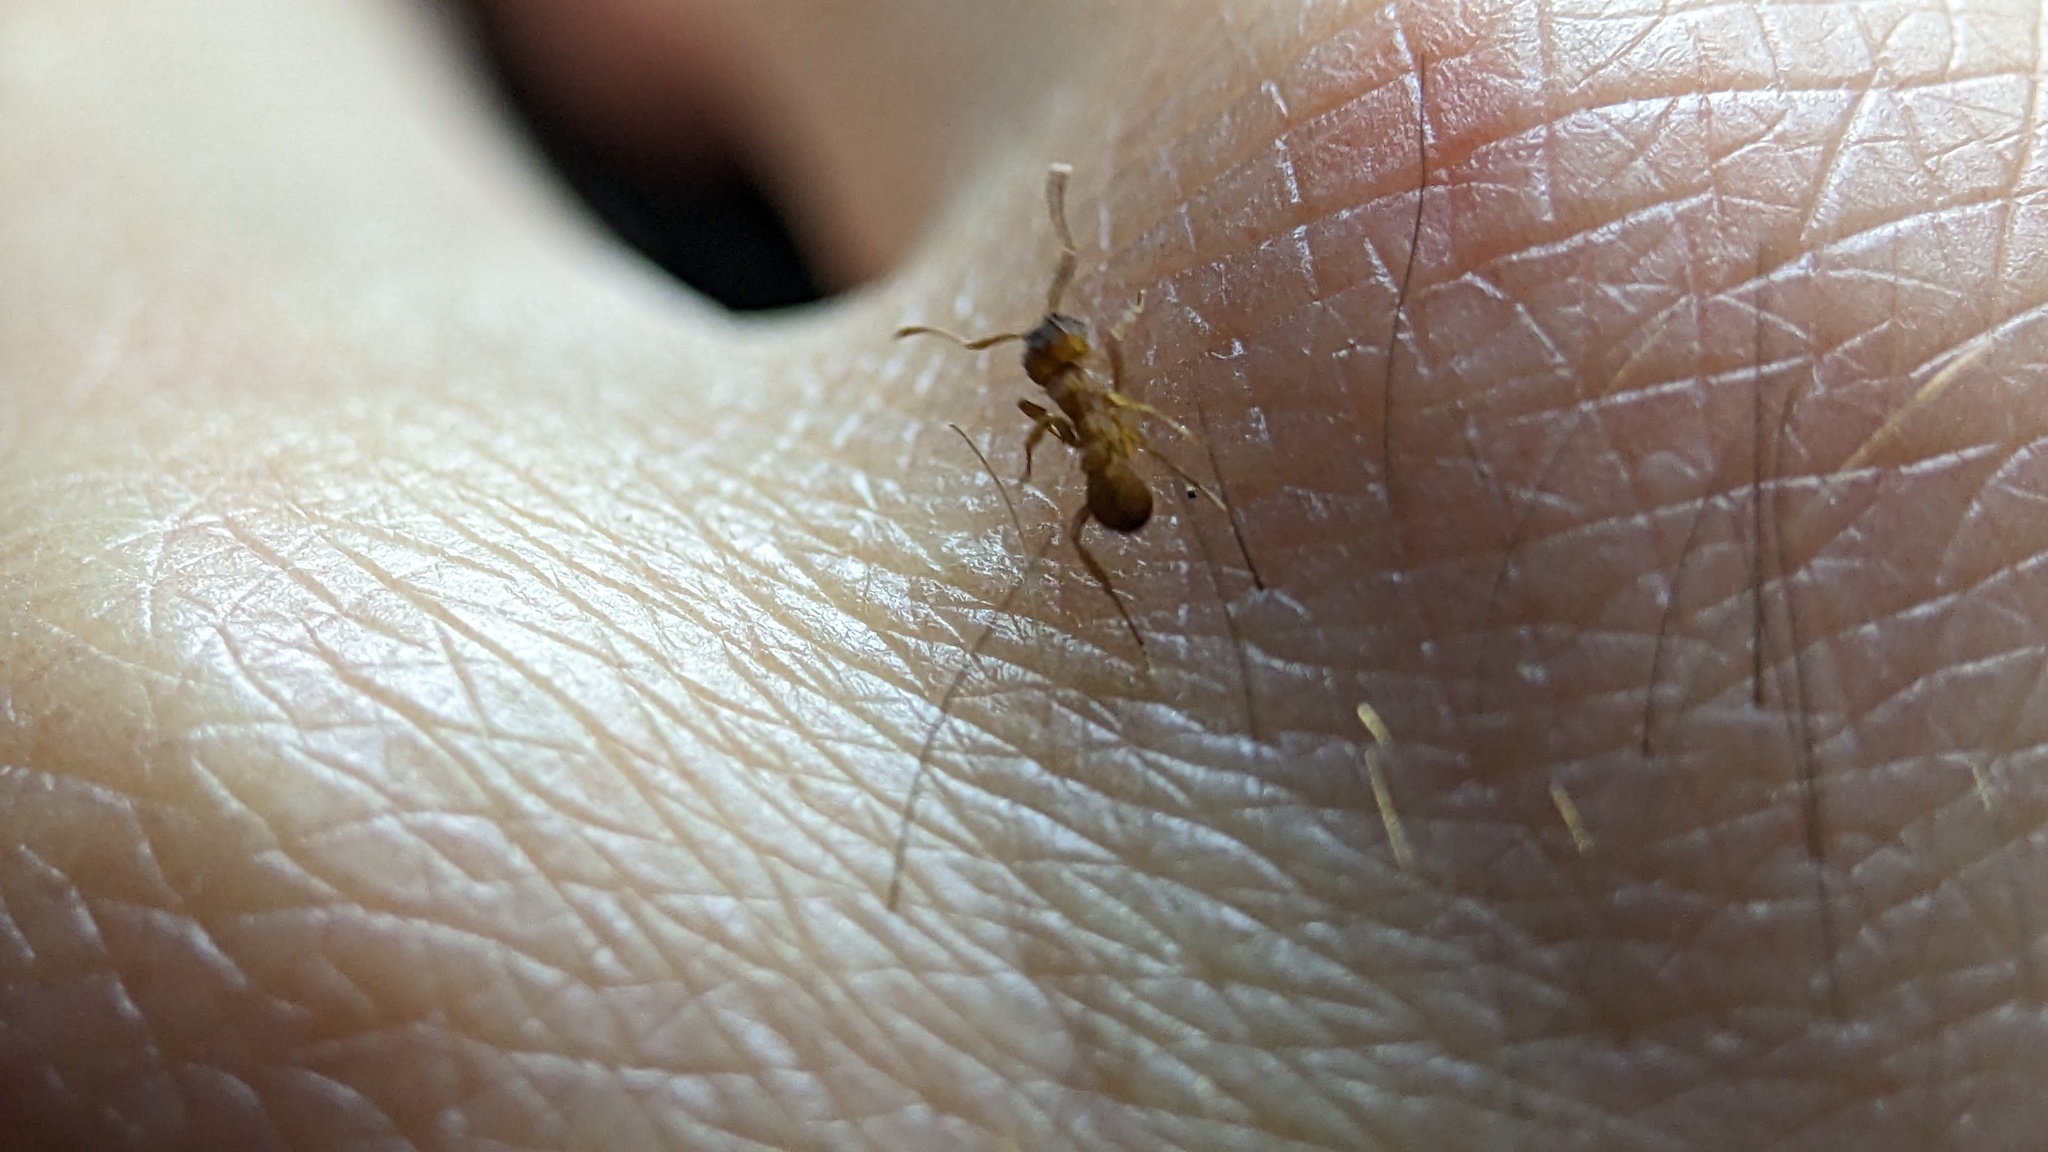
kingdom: Animalia
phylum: Arthropoda
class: Insecta
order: Hymenoptera
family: Formicidae
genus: Trachymyrmex
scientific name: Trachymyrmex septentrionalis
